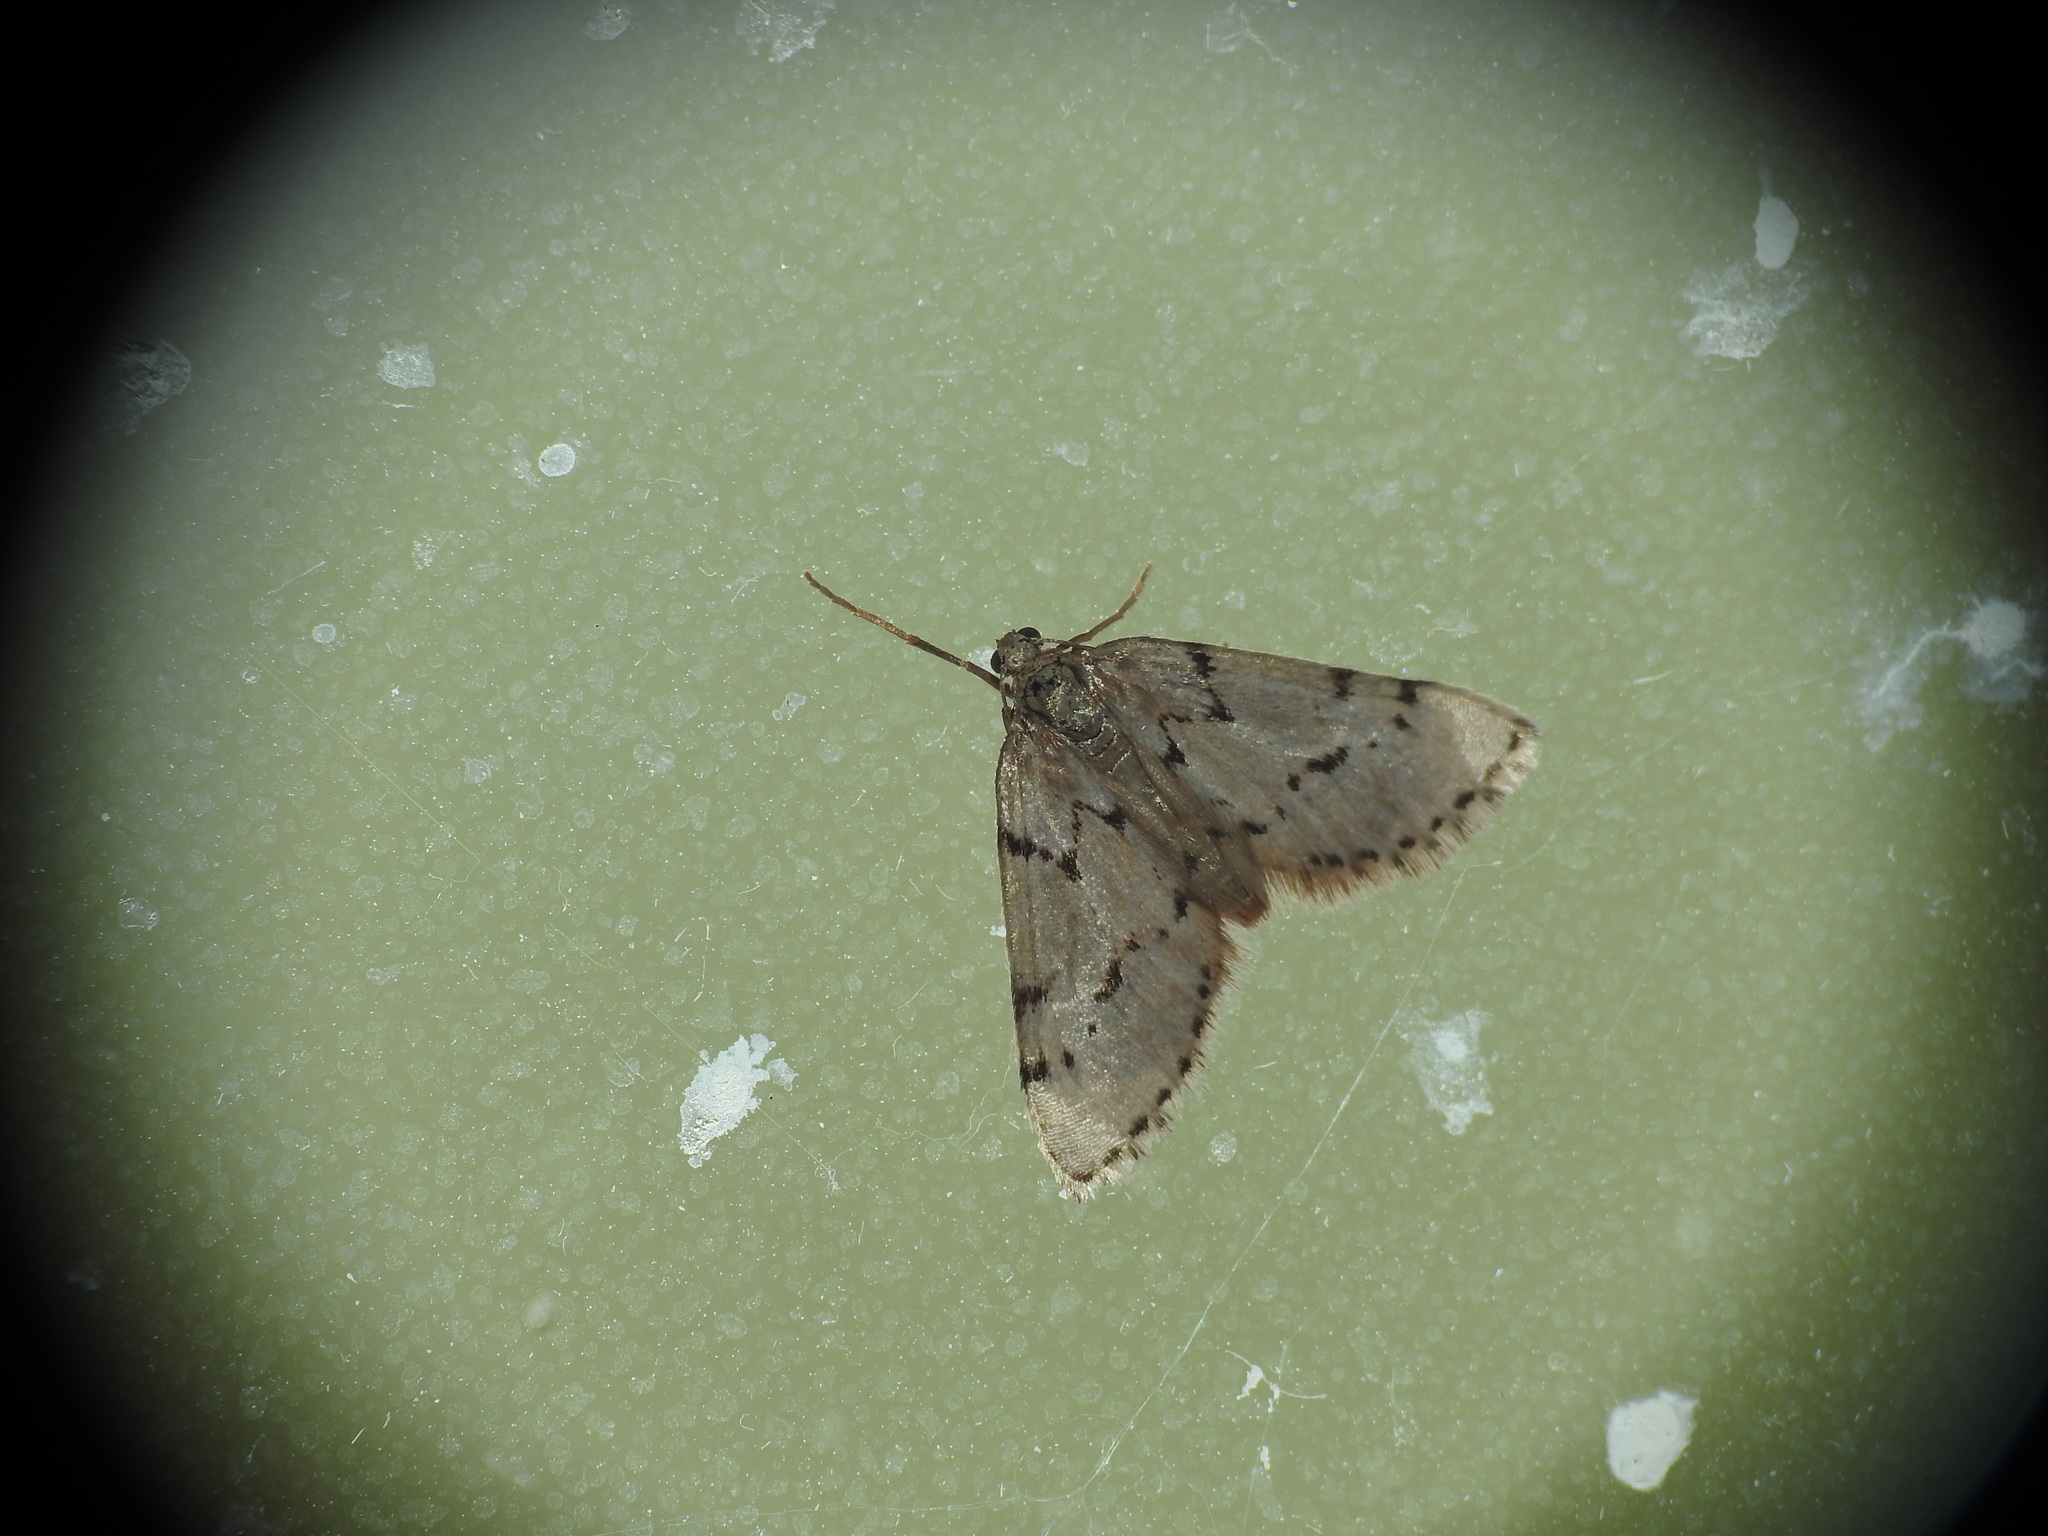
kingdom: Animalia
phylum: Arthropoda
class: Insecta
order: Lepidoptera
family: Geometridae
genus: Tephronia
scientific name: Tephronia oranaria
